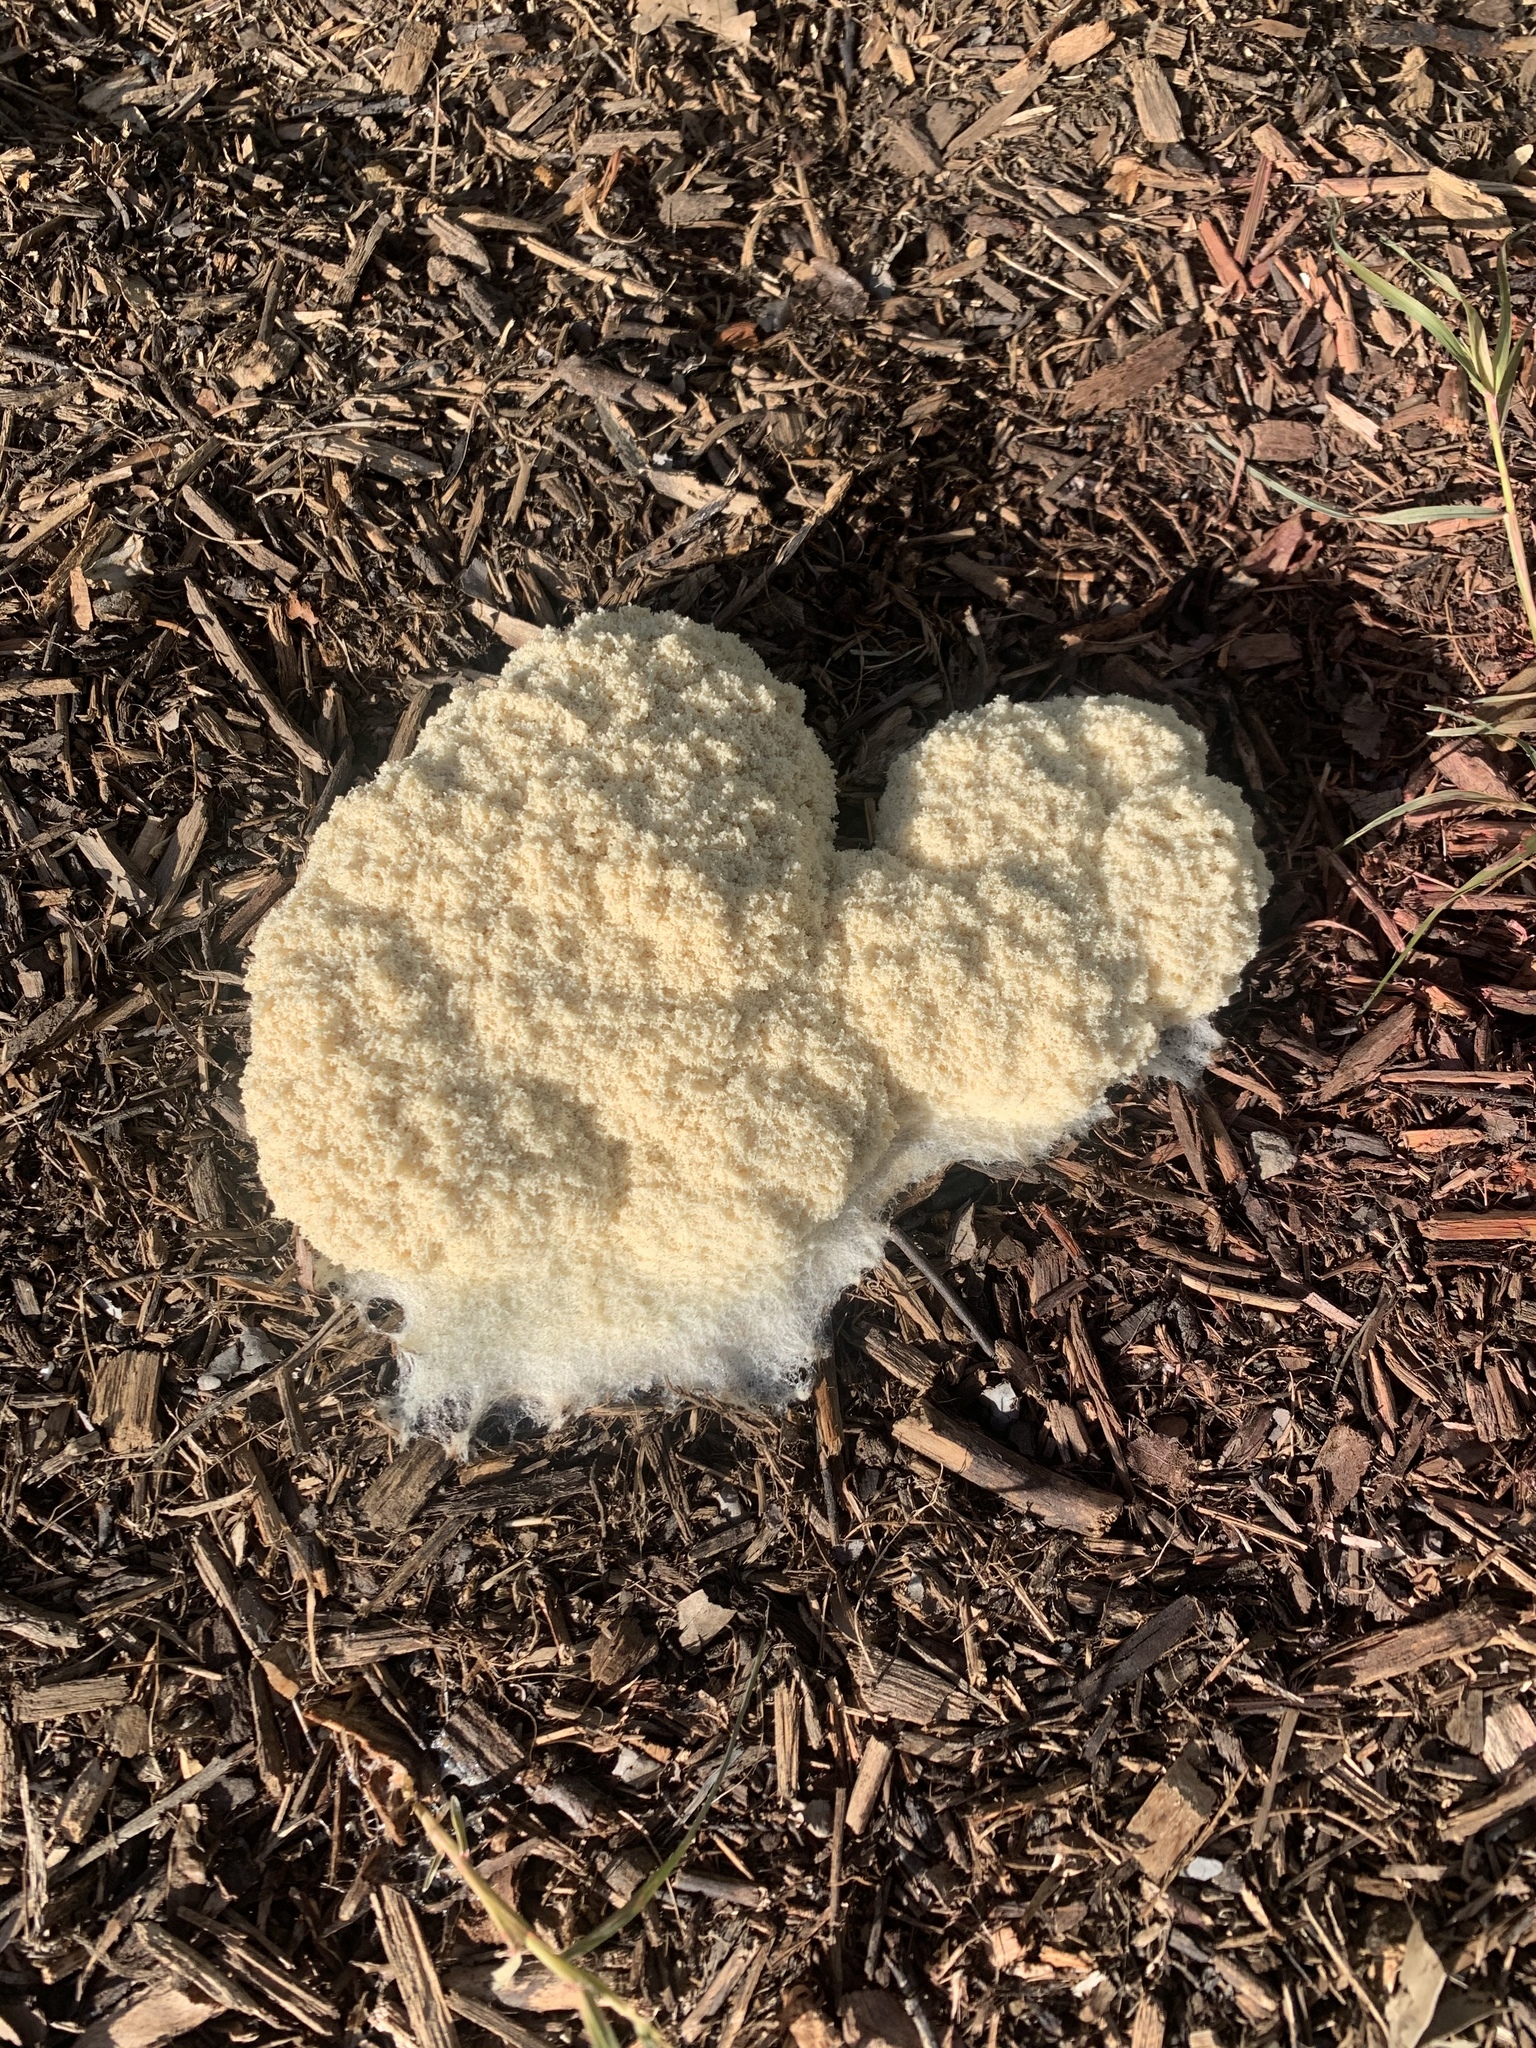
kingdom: Protozoa
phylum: Mycetozoa
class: Myxomycetes
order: Physarales
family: Physaraceae
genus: Fuligo
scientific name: Fuligo septica
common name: Dog vomit slime mold
